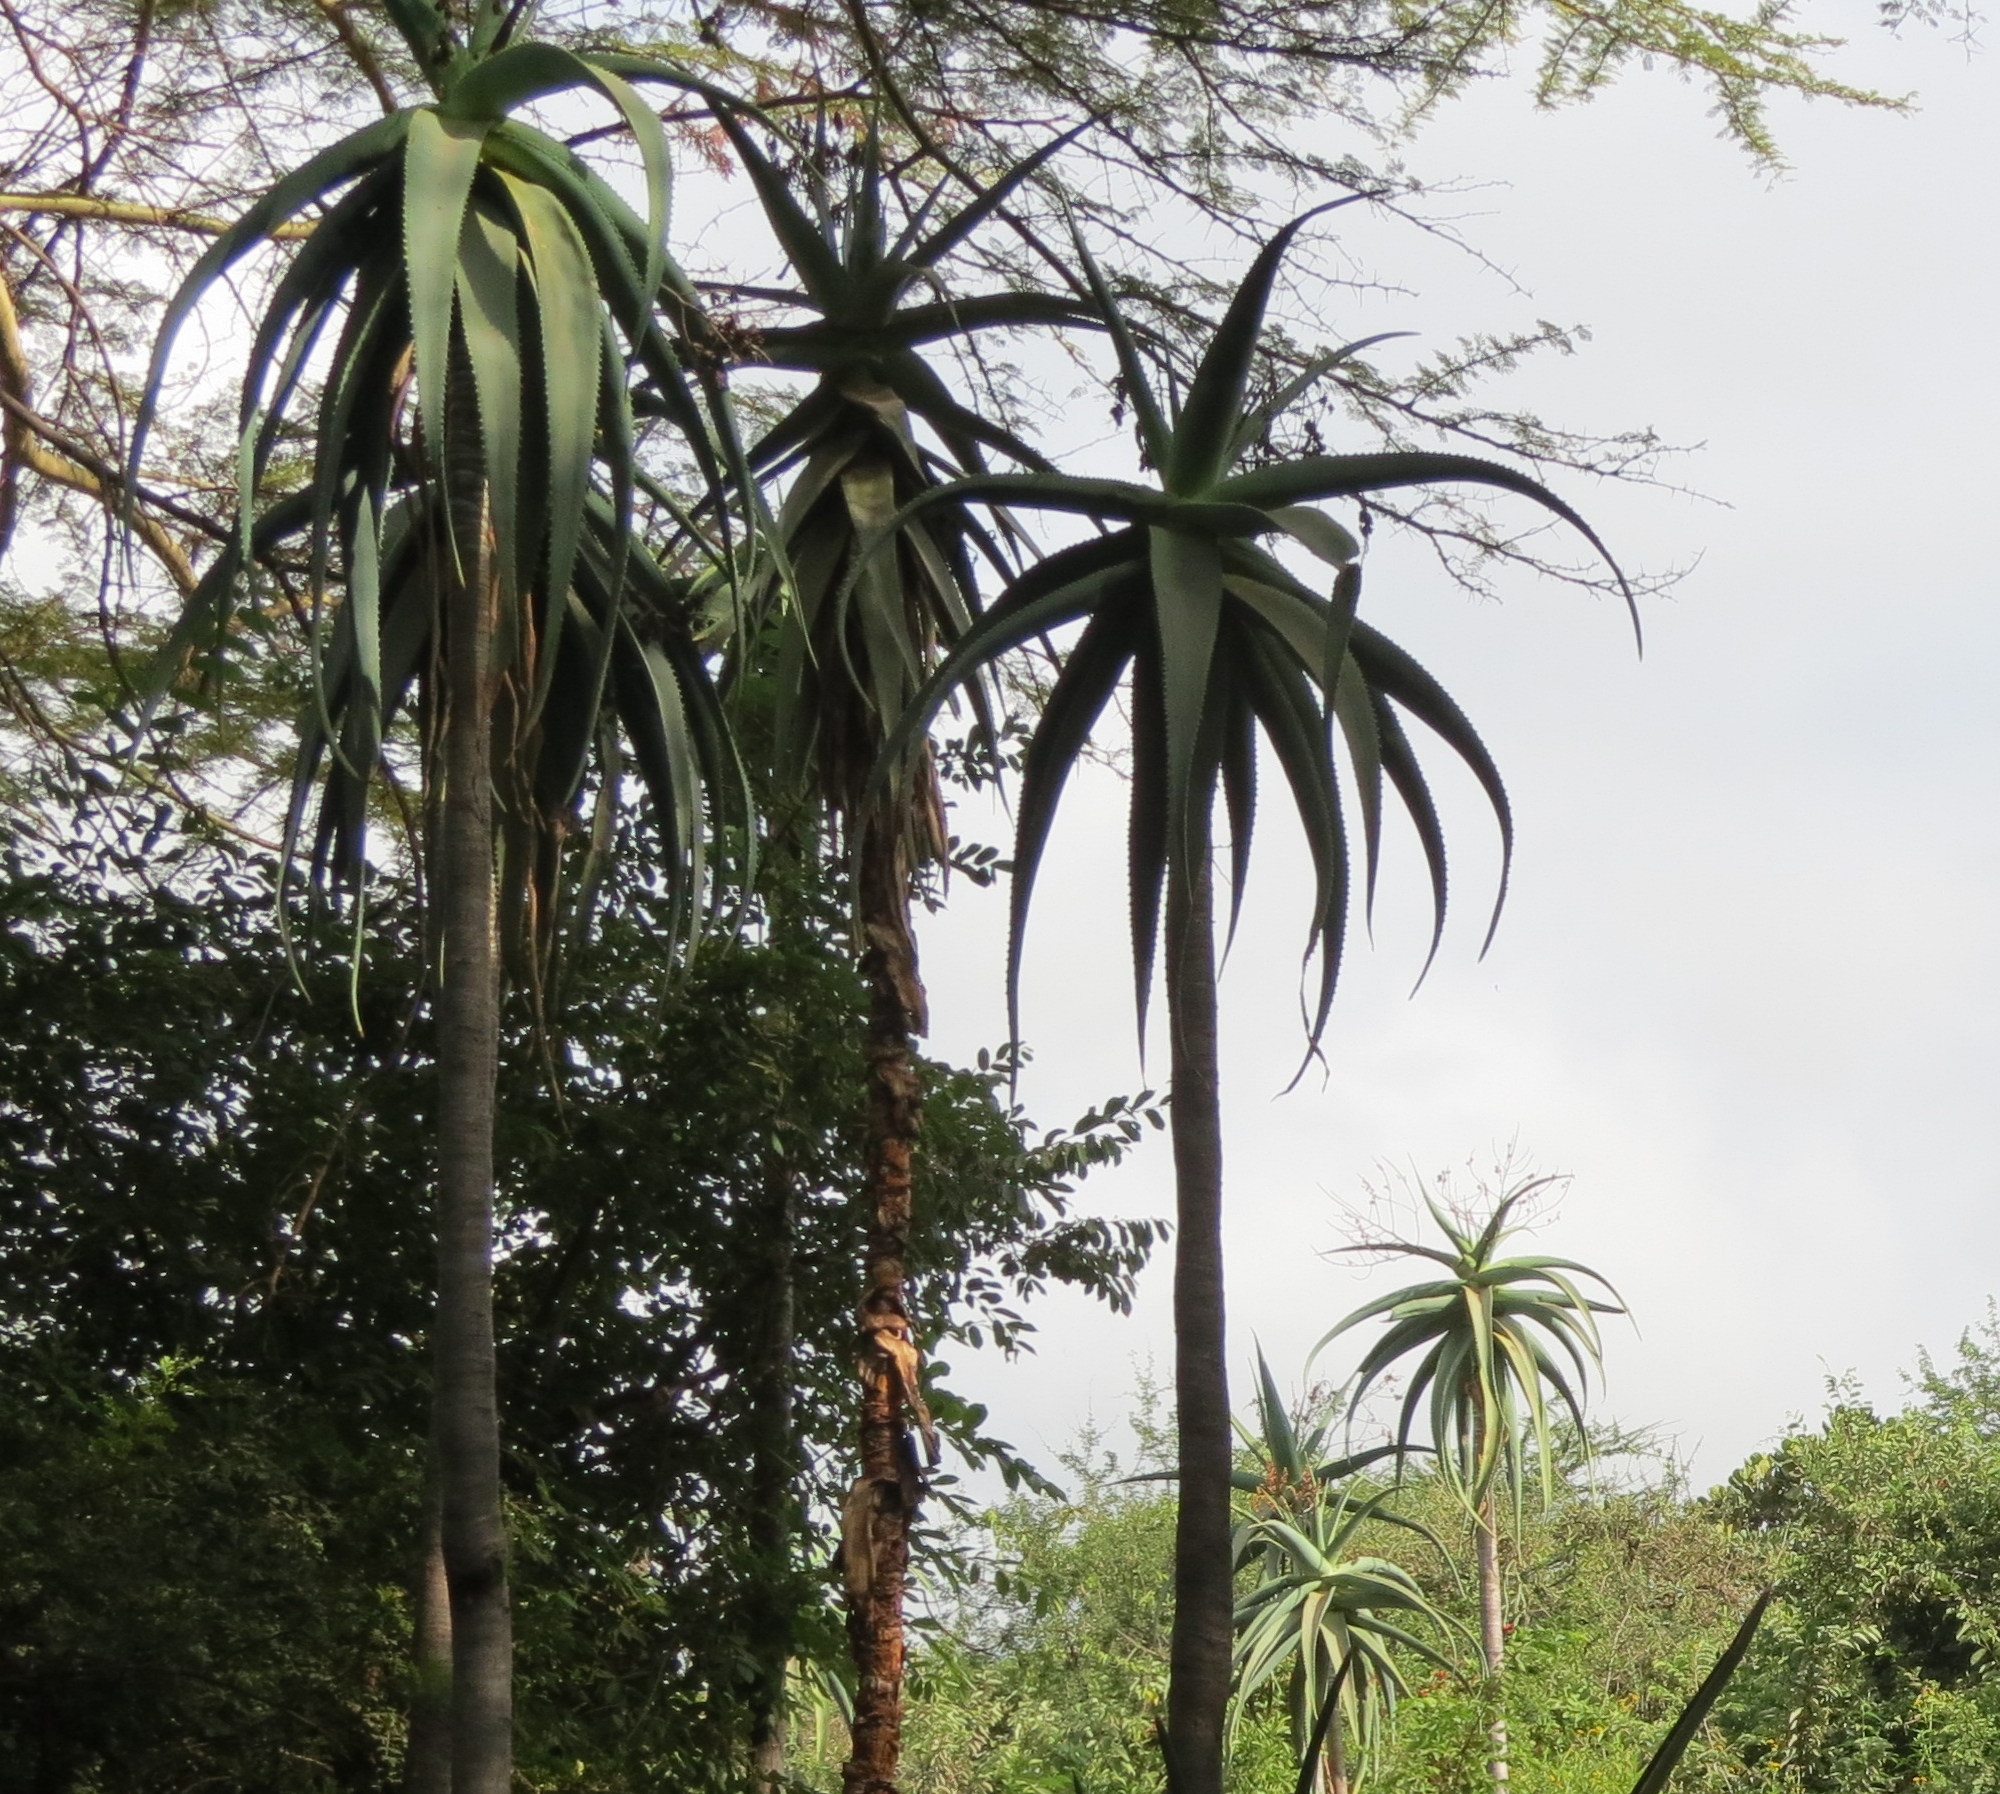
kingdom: Plantae
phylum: Tracheophyta
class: Liliopsida
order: Asparagales
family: Asphodelaceae
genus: Aloe
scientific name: Aloe ballyi
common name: Rat aloe
